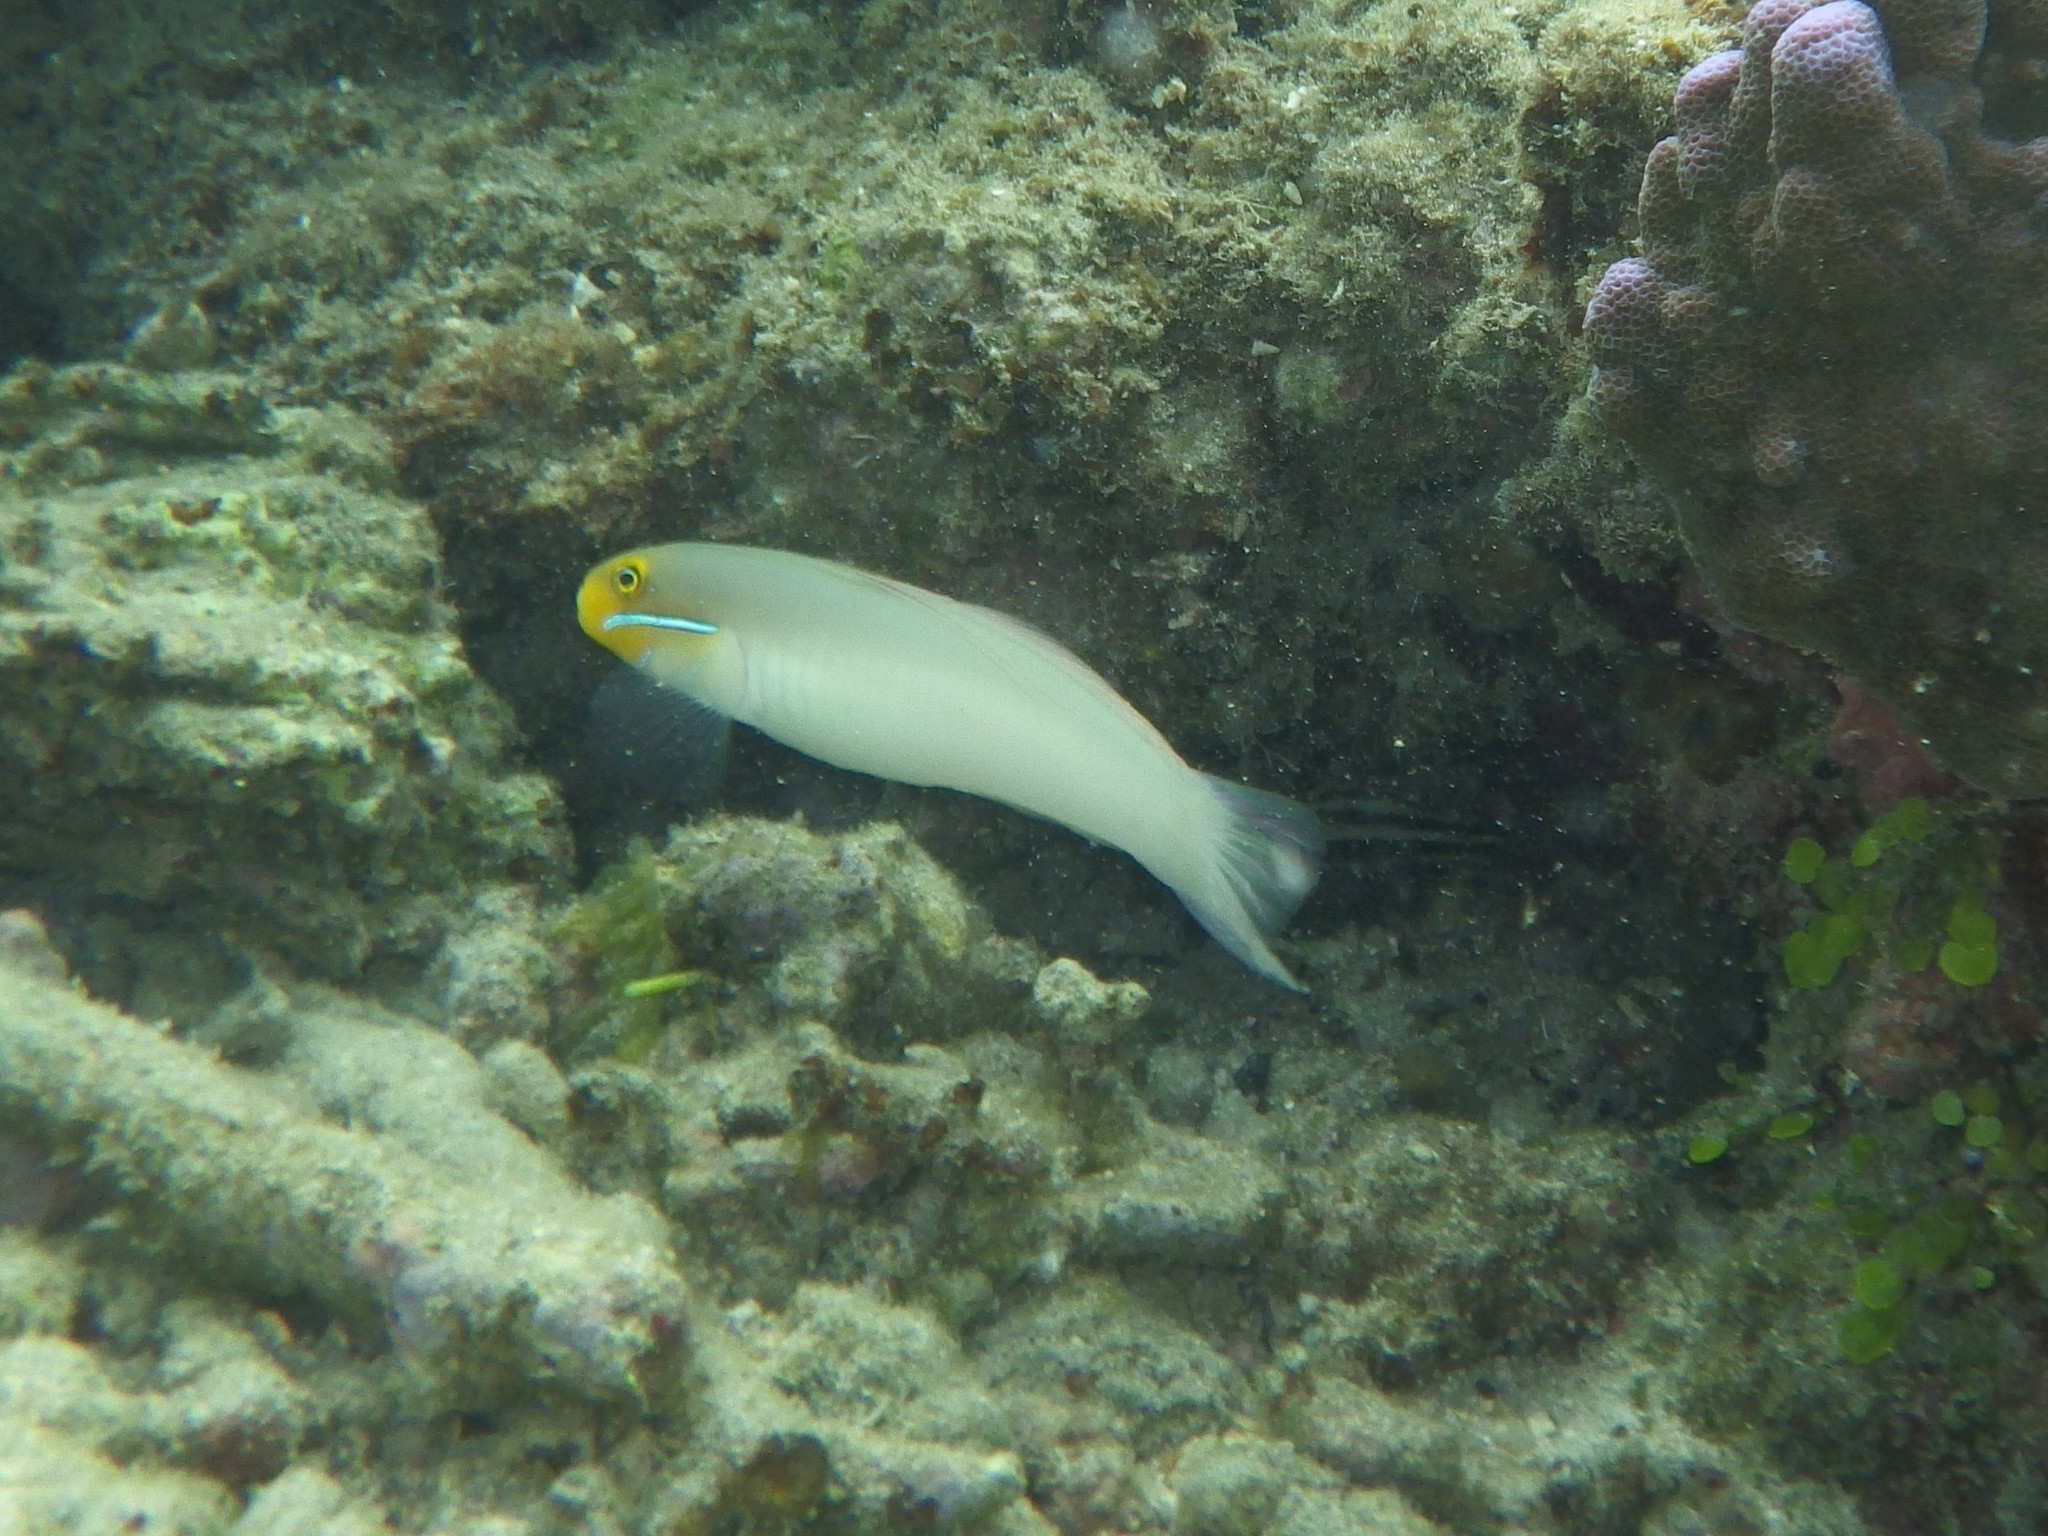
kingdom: Animalia
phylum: Chordata
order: Perciformes
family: Gobiidae
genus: Valenciennea
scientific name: Valenciennea strigata
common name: Blueband goby
